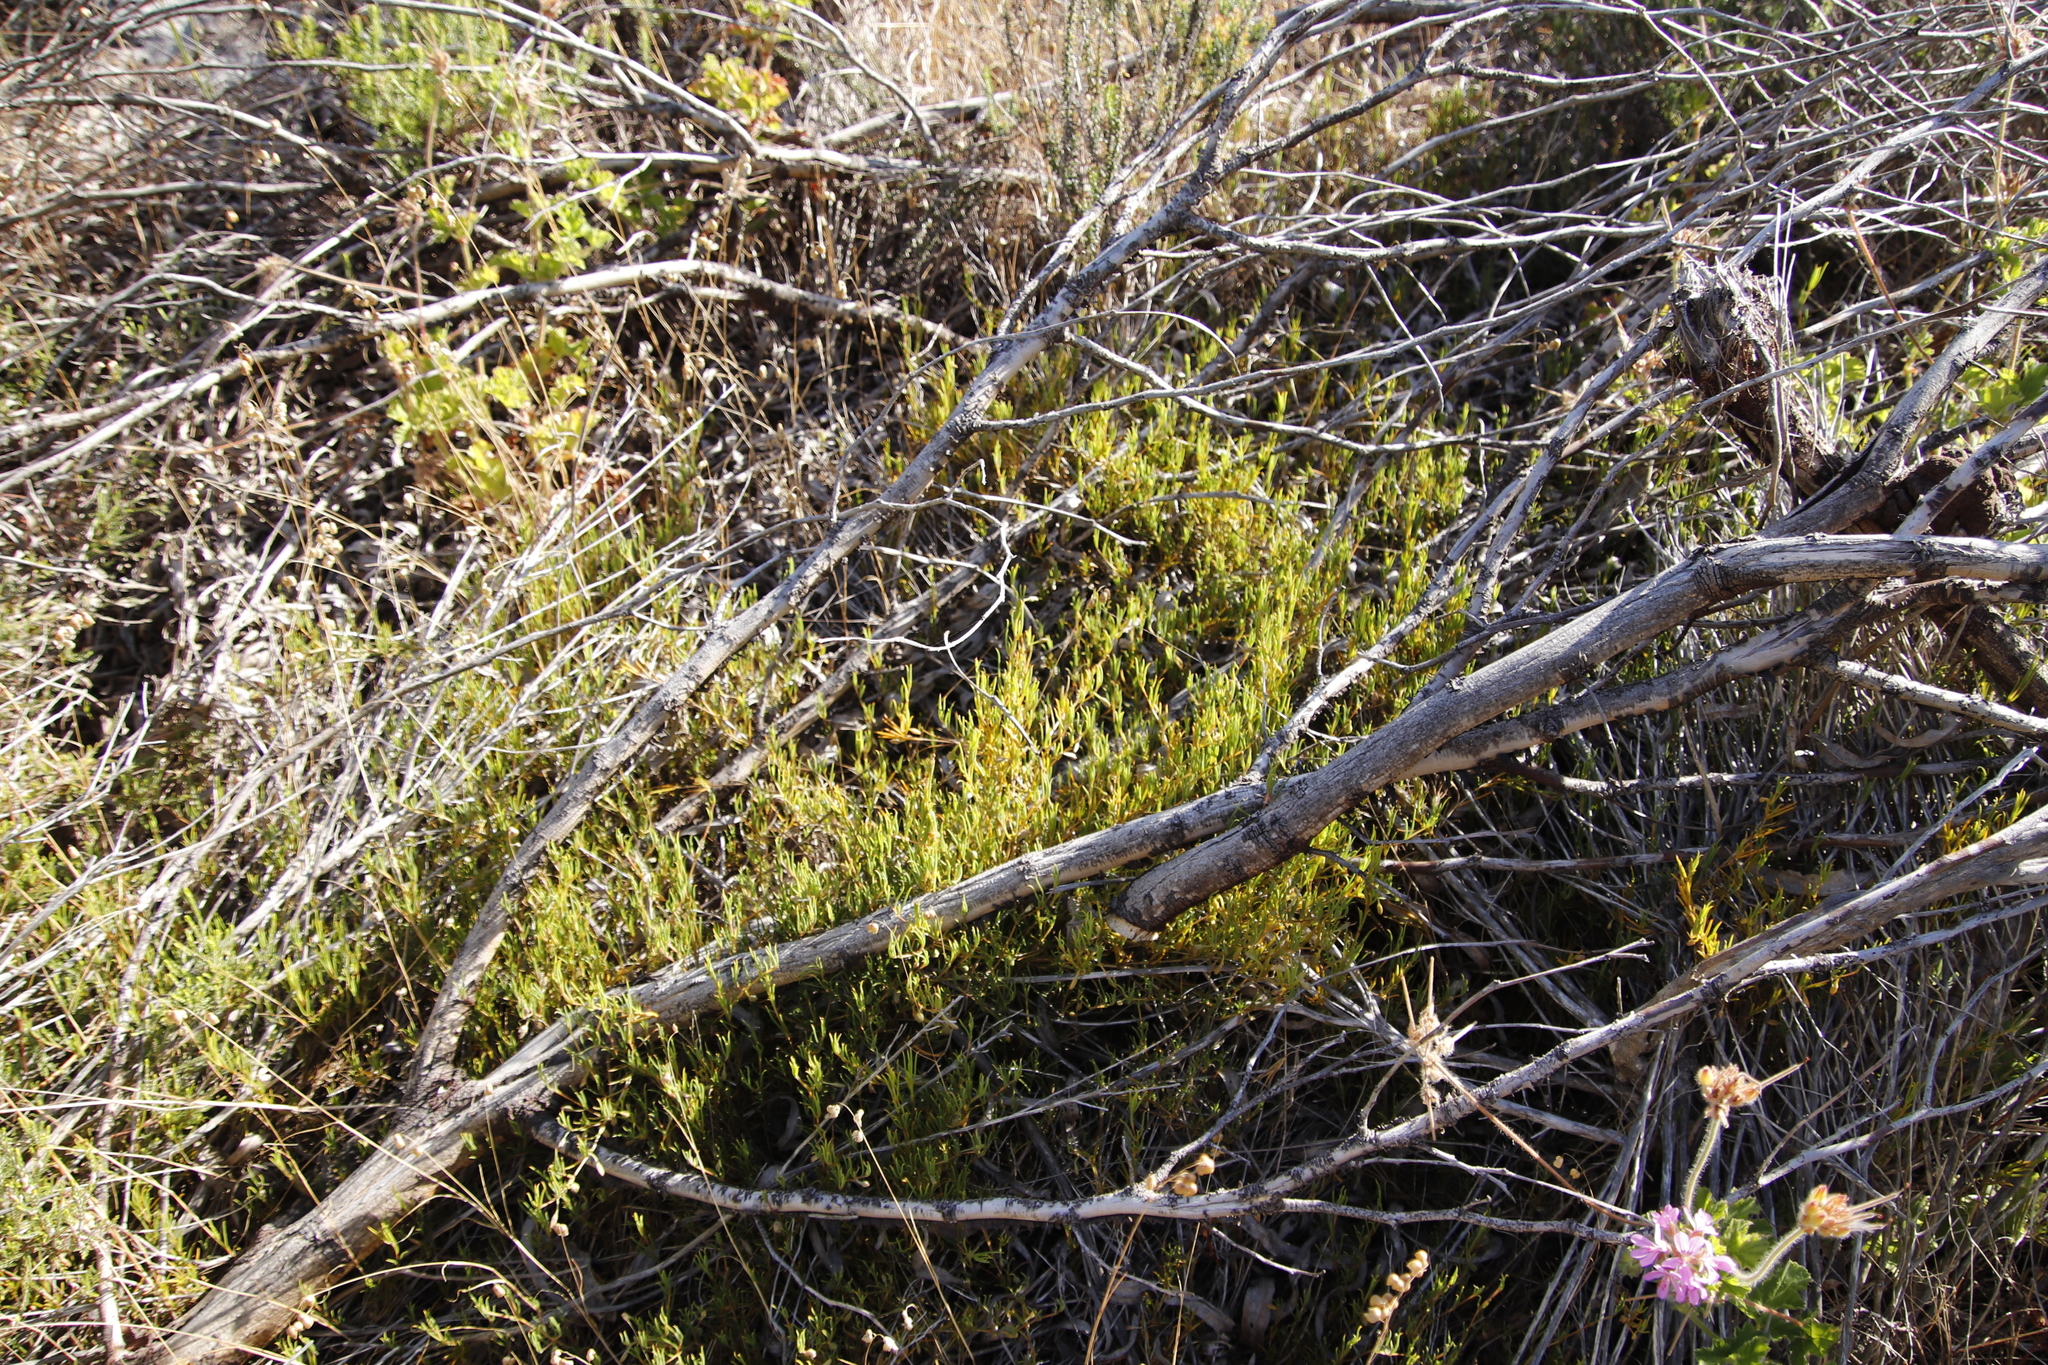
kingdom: Plantae
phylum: Tracheophyta
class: Magnoliopsida
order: Caryophyllales
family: Aizoaceae
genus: Acrosanthes
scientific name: Acrosanthes teretifolia
